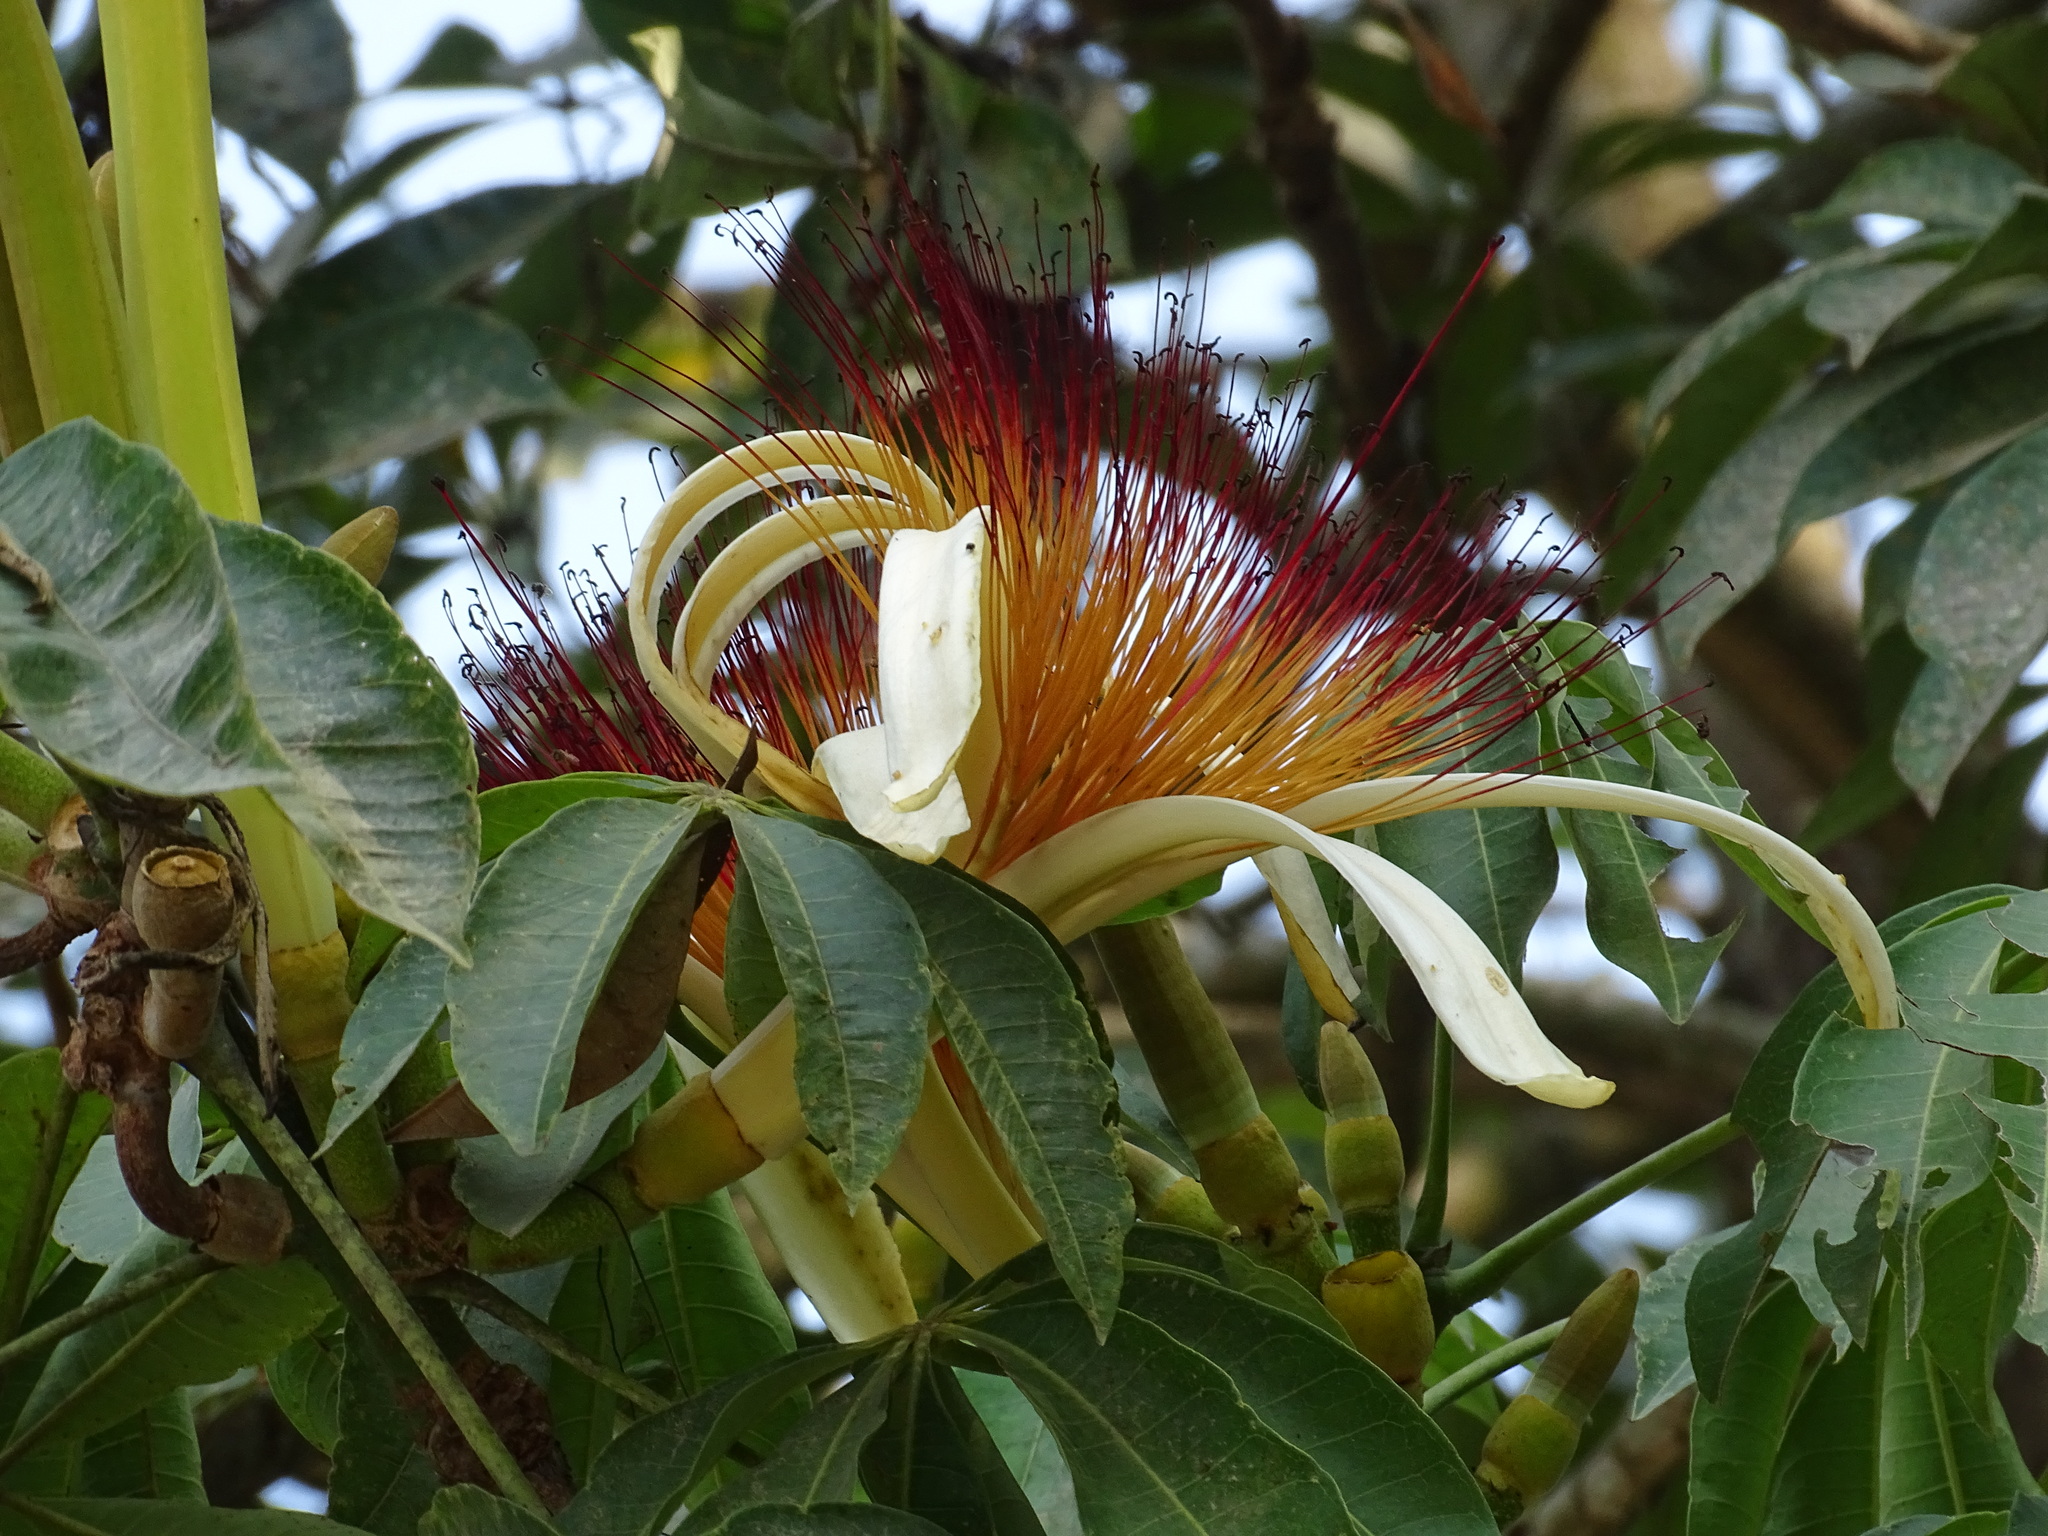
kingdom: Plantae
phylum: Tracheophyta
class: Magnoliopsida
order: Malvales
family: Malvaceae
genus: Pachira
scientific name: Pachira aquatica
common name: Provision-tree
